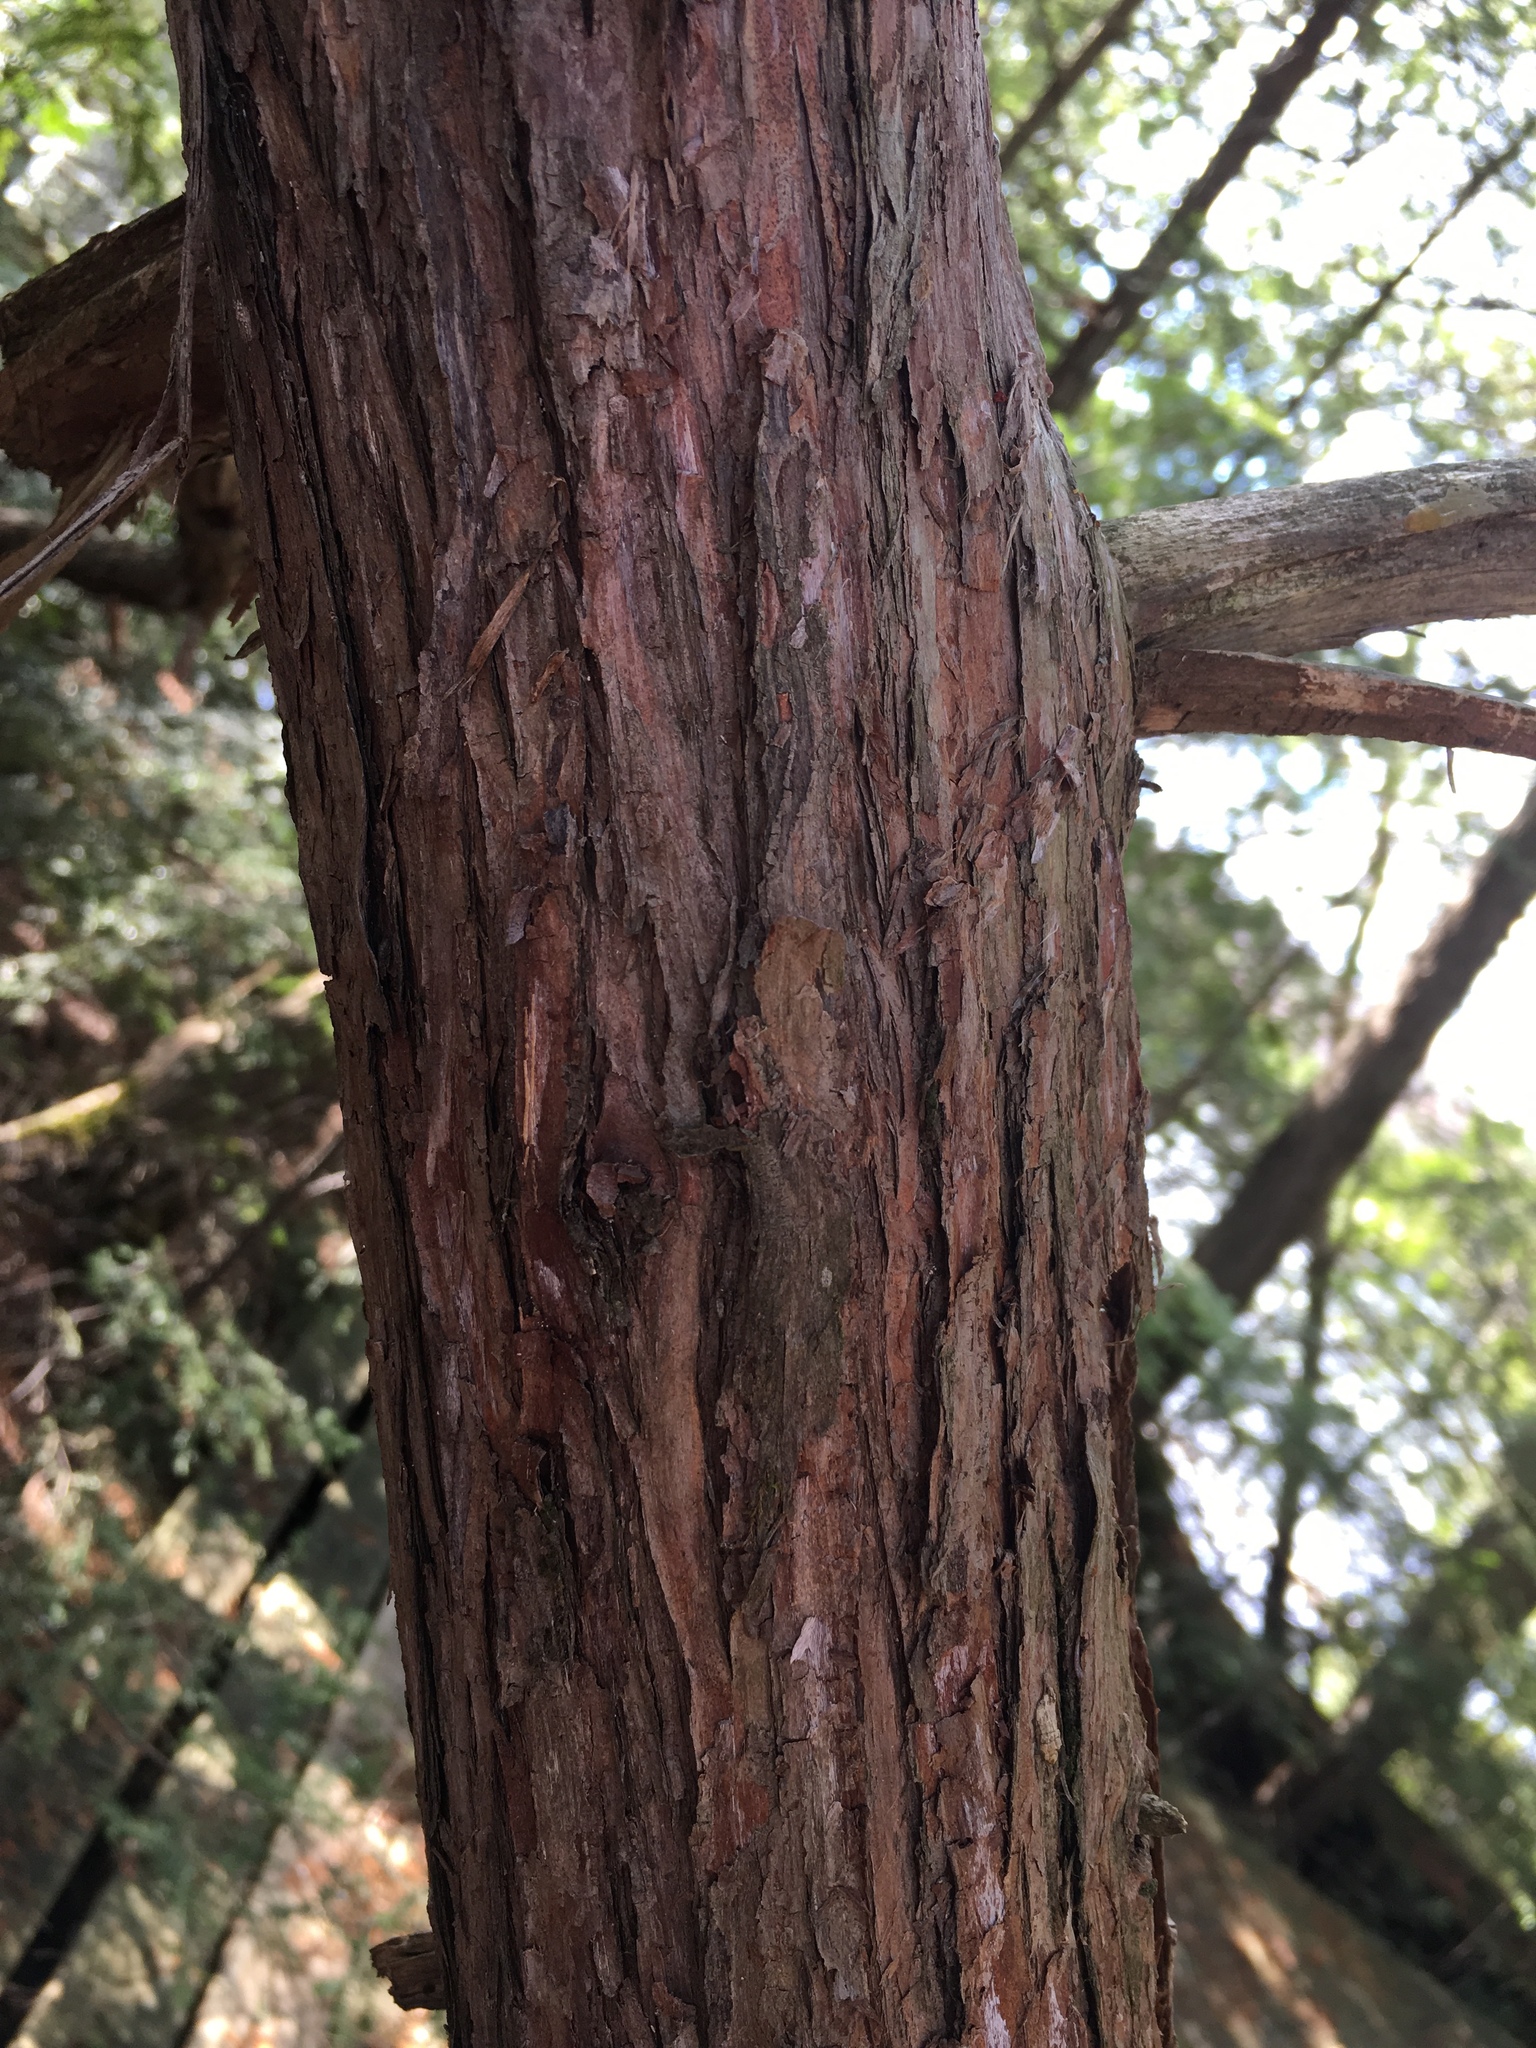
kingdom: Plantae
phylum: Tracheophyta
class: Pinopsida
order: Pinales
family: Cupressaceae
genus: Thuja
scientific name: Thuja occidentalis
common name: Northern white-cedar
